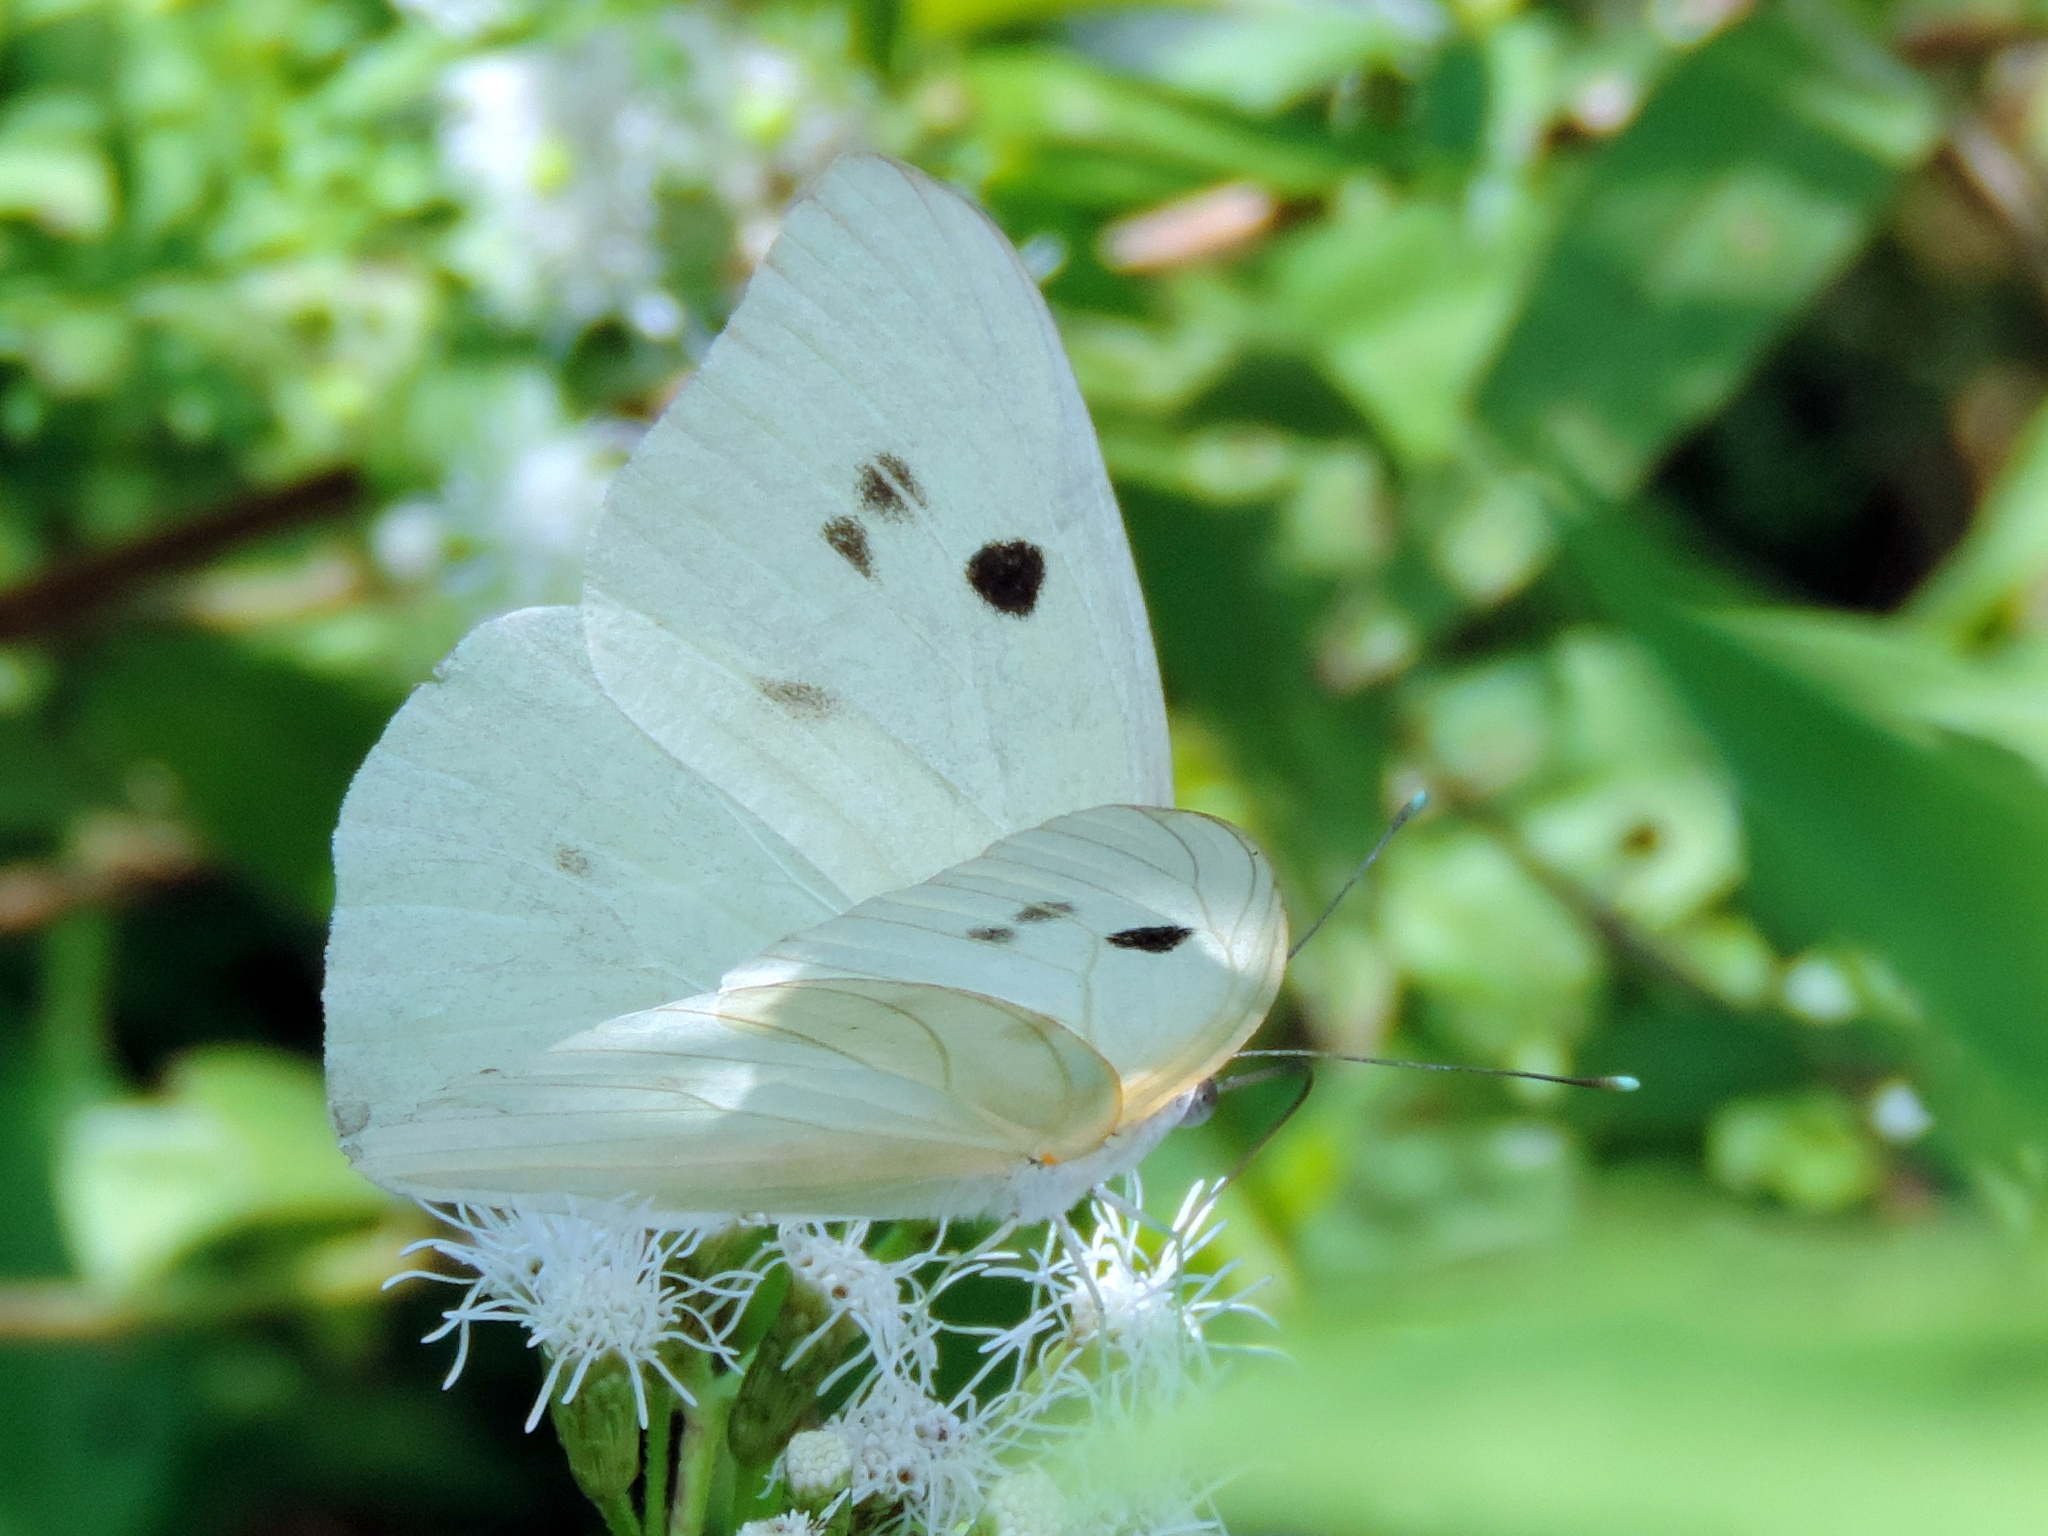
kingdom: Animalia
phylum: Arthropoda
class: Insecta
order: Lepidoptera
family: Pieridae
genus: Ganyra
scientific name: Ganyra josephina
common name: Giant white
